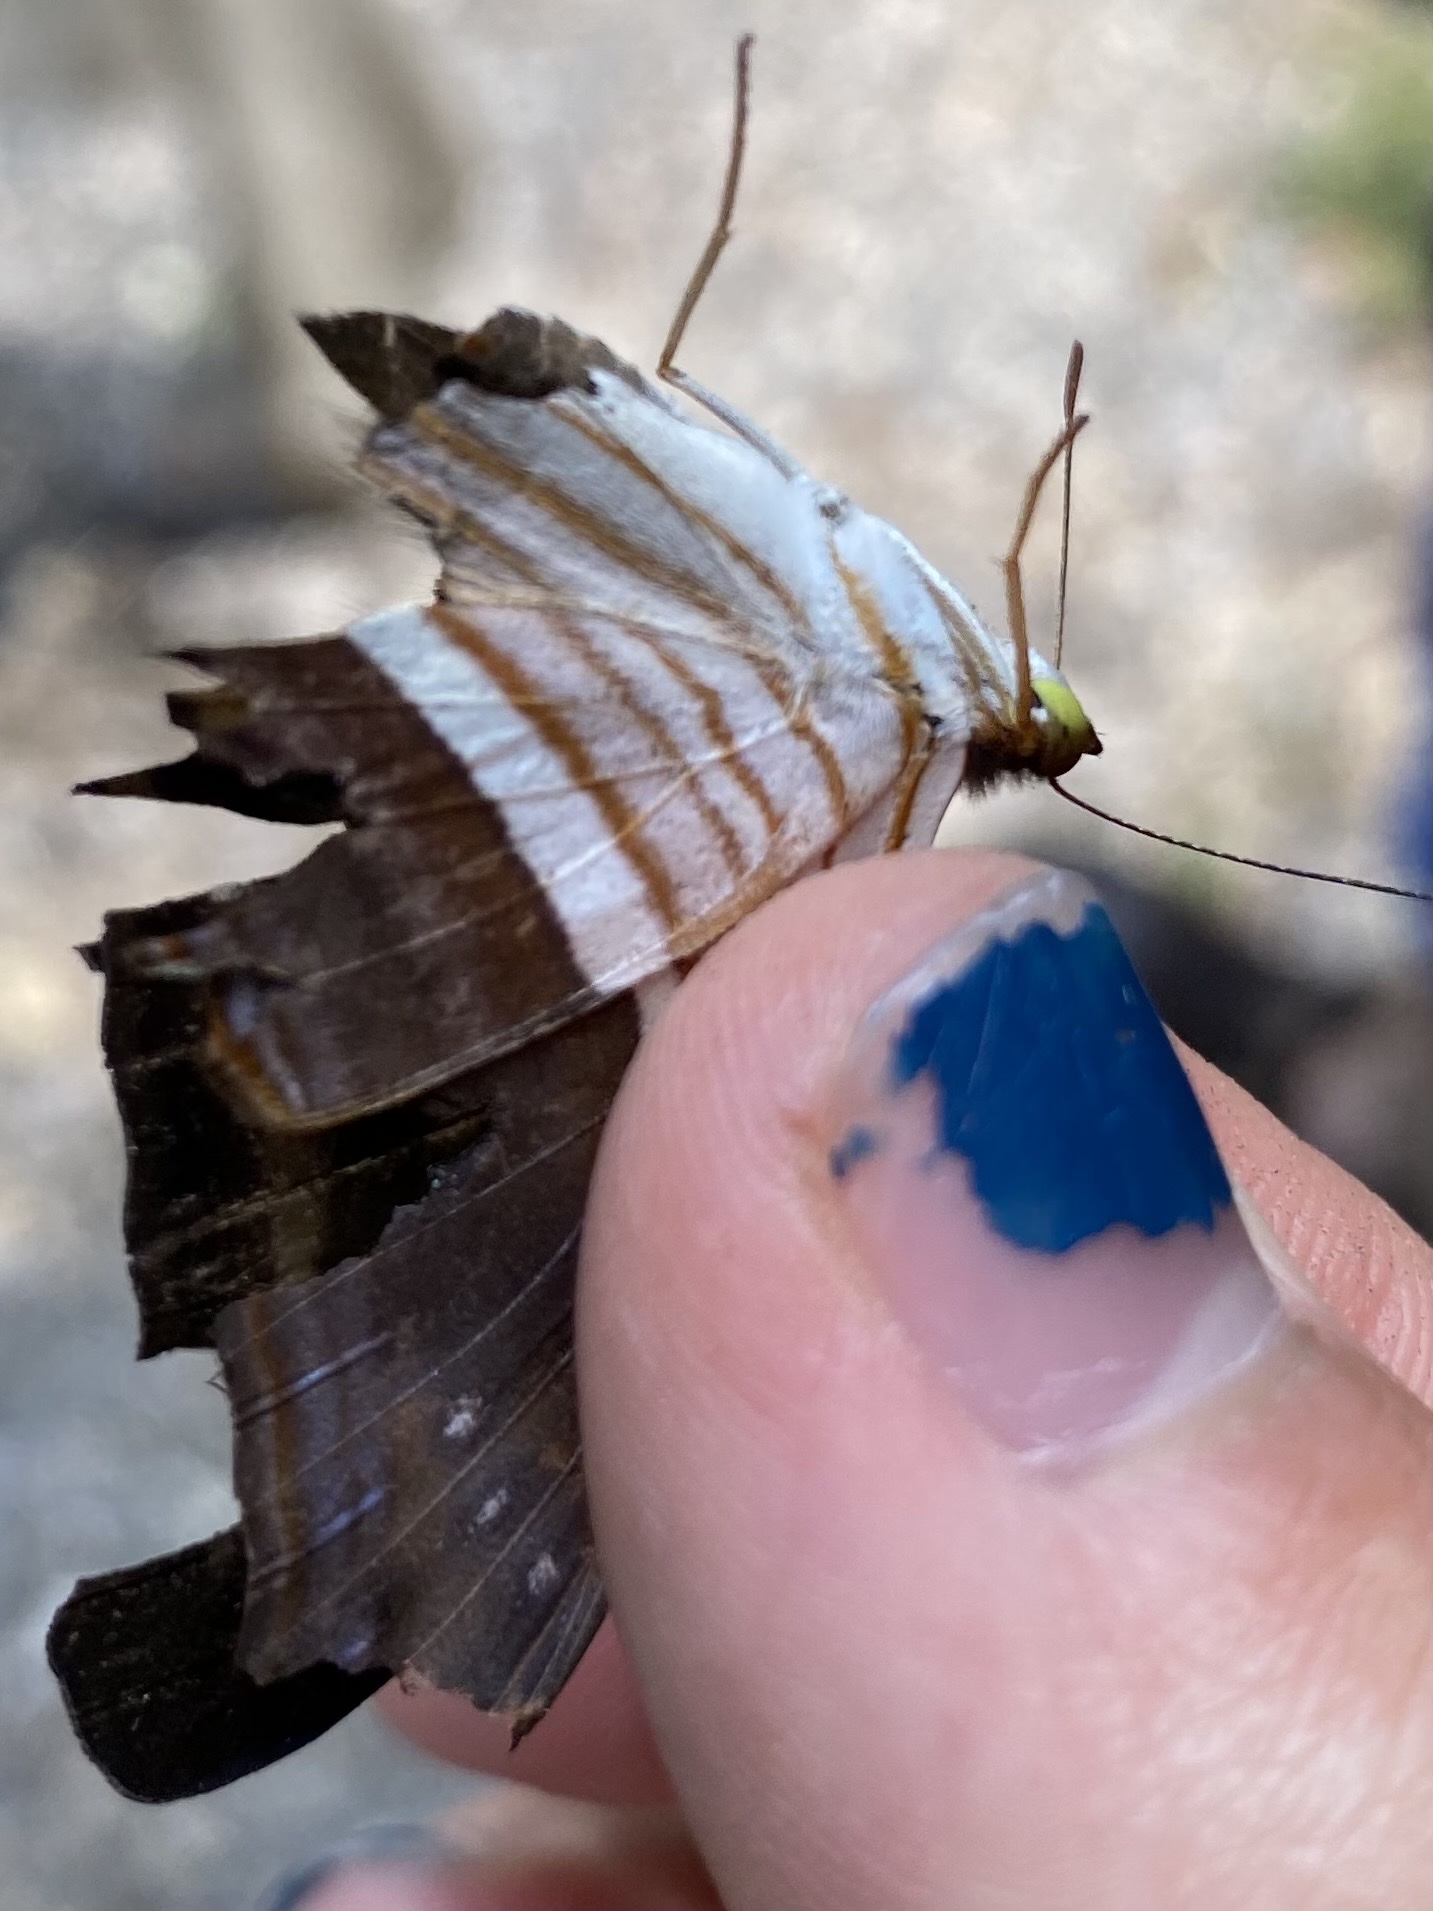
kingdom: Animalia
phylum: Arthropoda
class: Insecta
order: Lepidoptera
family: Nymphalidae
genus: Marpesia
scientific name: Marpesia chiron
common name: Many-banded daggerwing
